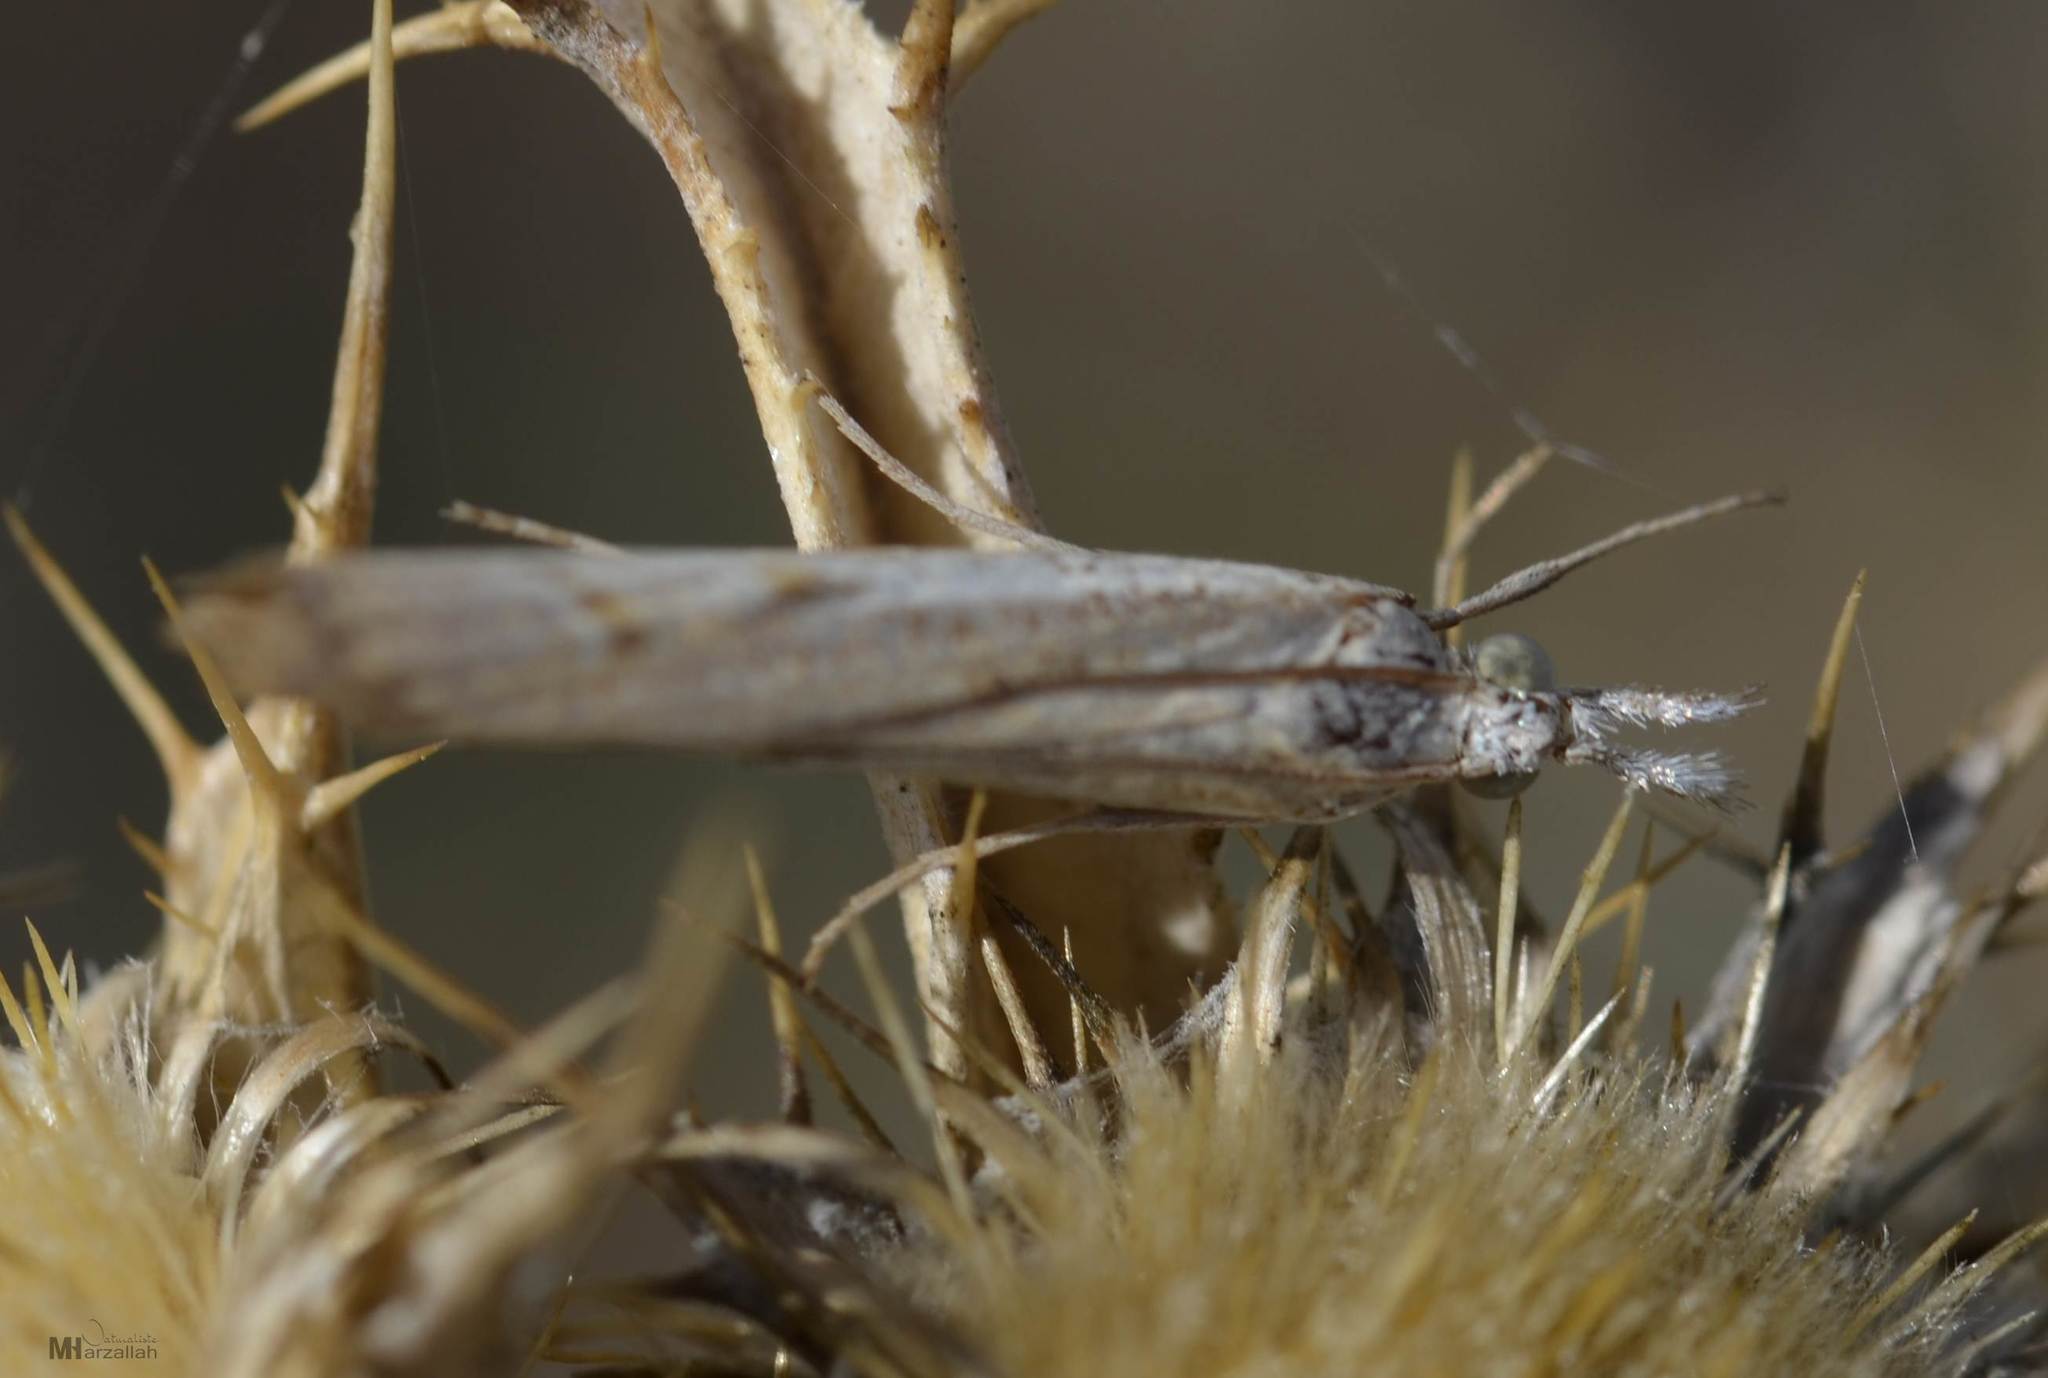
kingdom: Animalia
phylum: Arthropoda
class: Insecta
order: Lepidoptera
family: Crambidae
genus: Agriphila
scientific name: Agriphila geniculea
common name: Elbow-stripe grass-veneer
